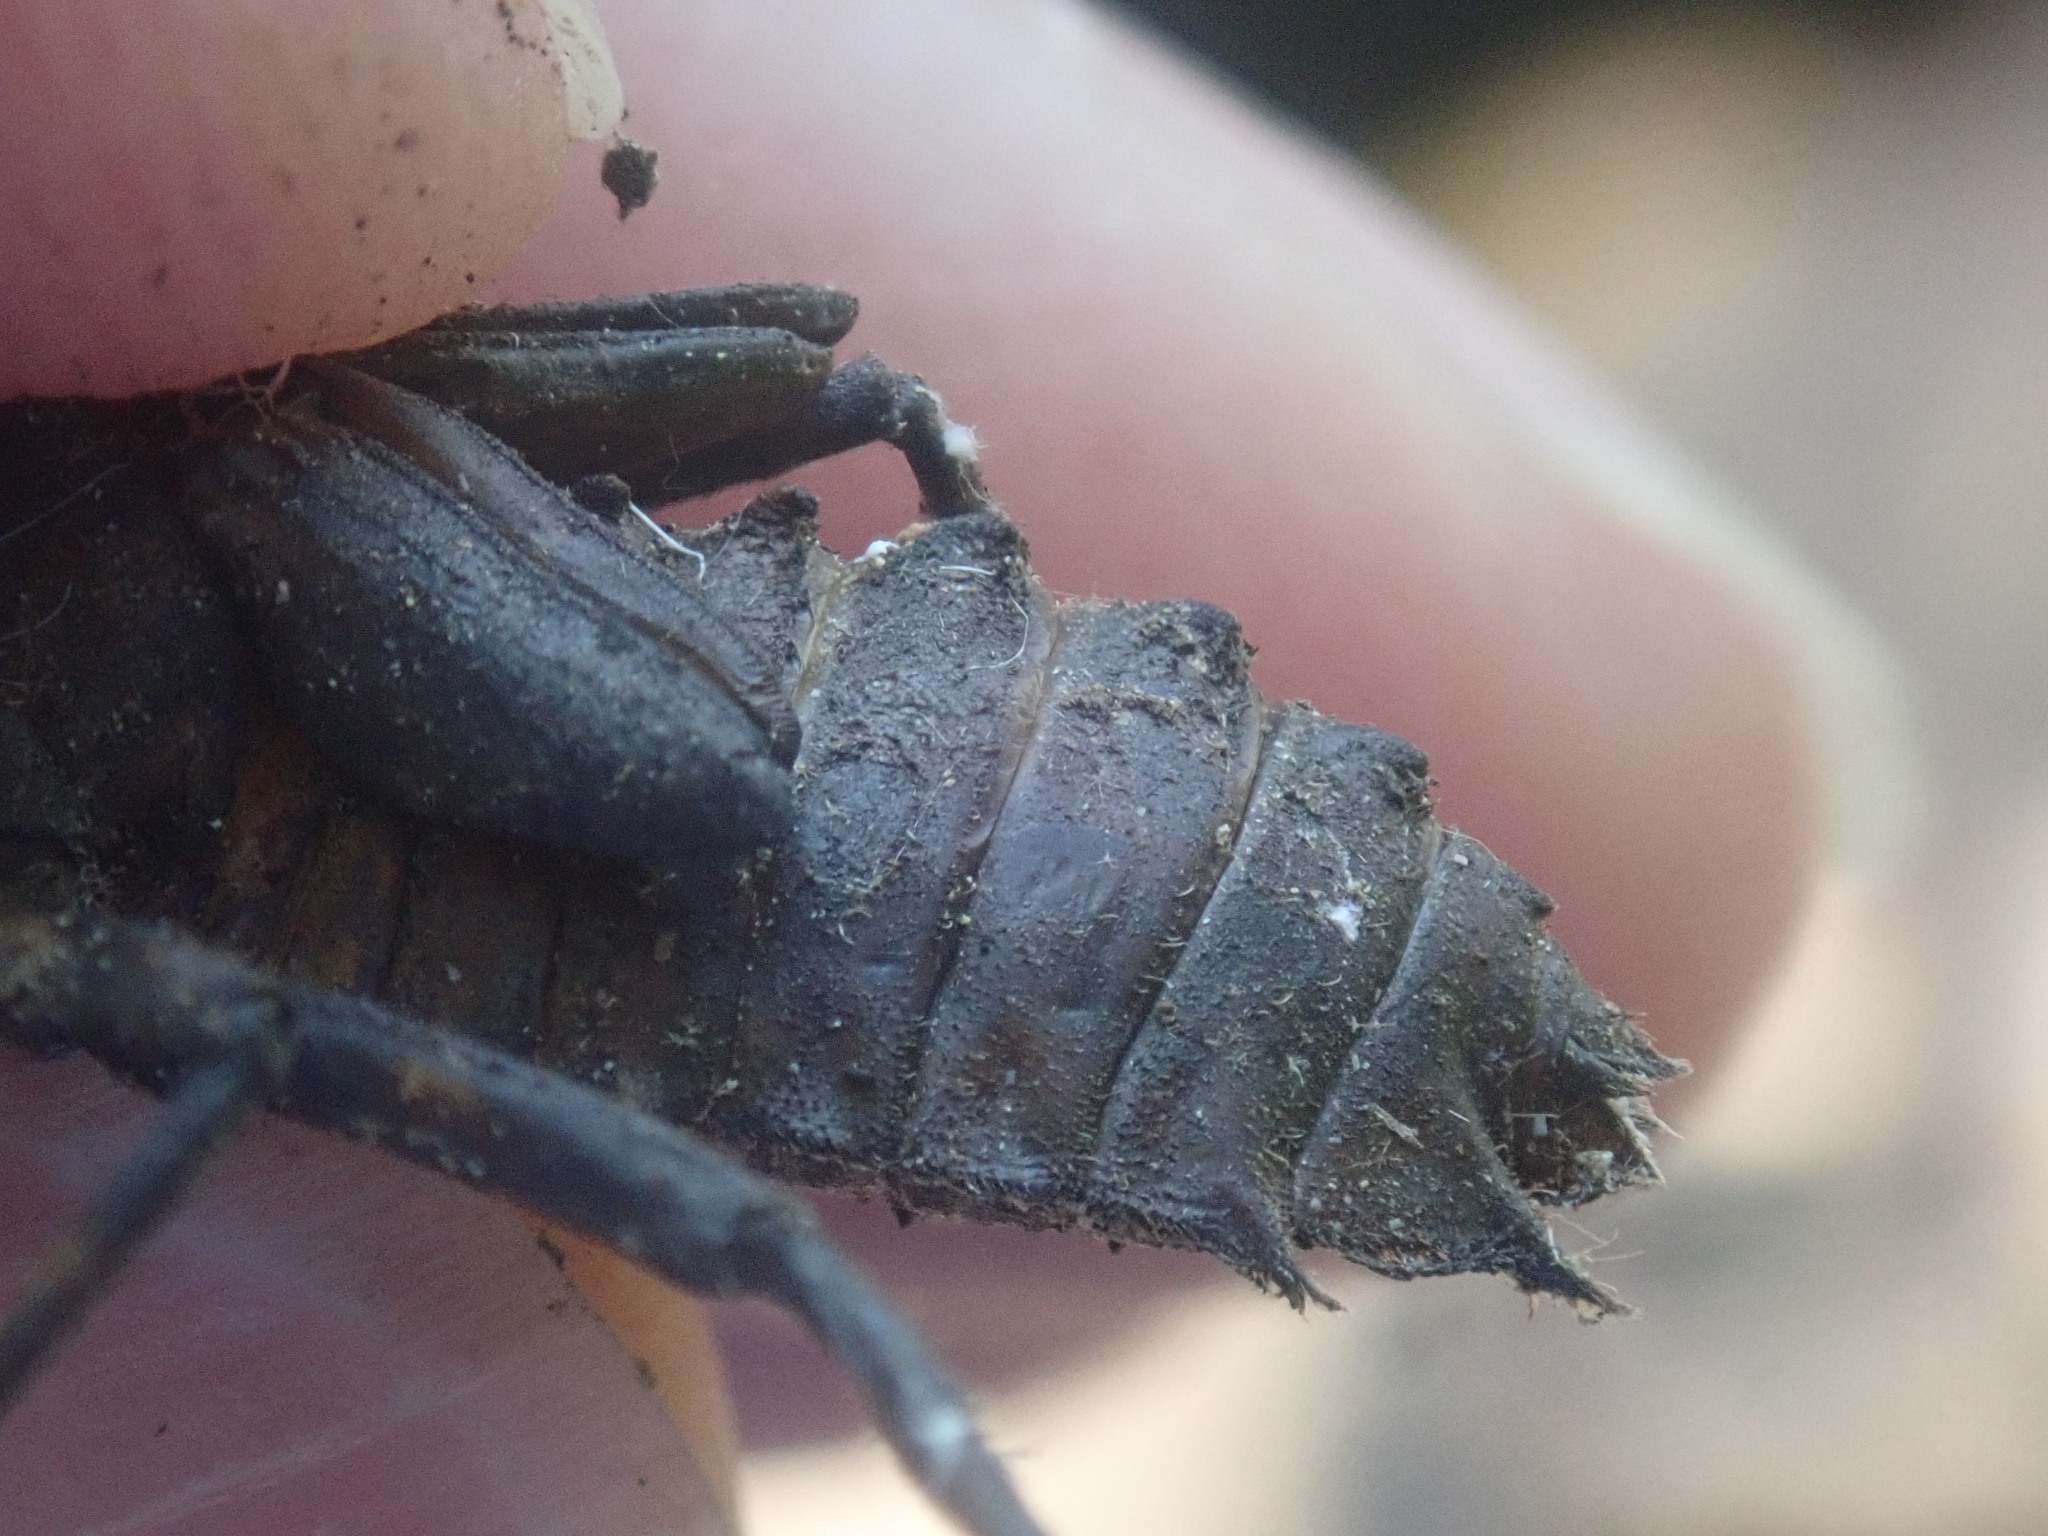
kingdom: Animalia
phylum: Arthropoda
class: Insecta
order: Odonata
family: Corduliidae
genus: Neurocordulia
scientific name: Neurocordulia yamaskanensis
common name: Stygian shadowdragon
